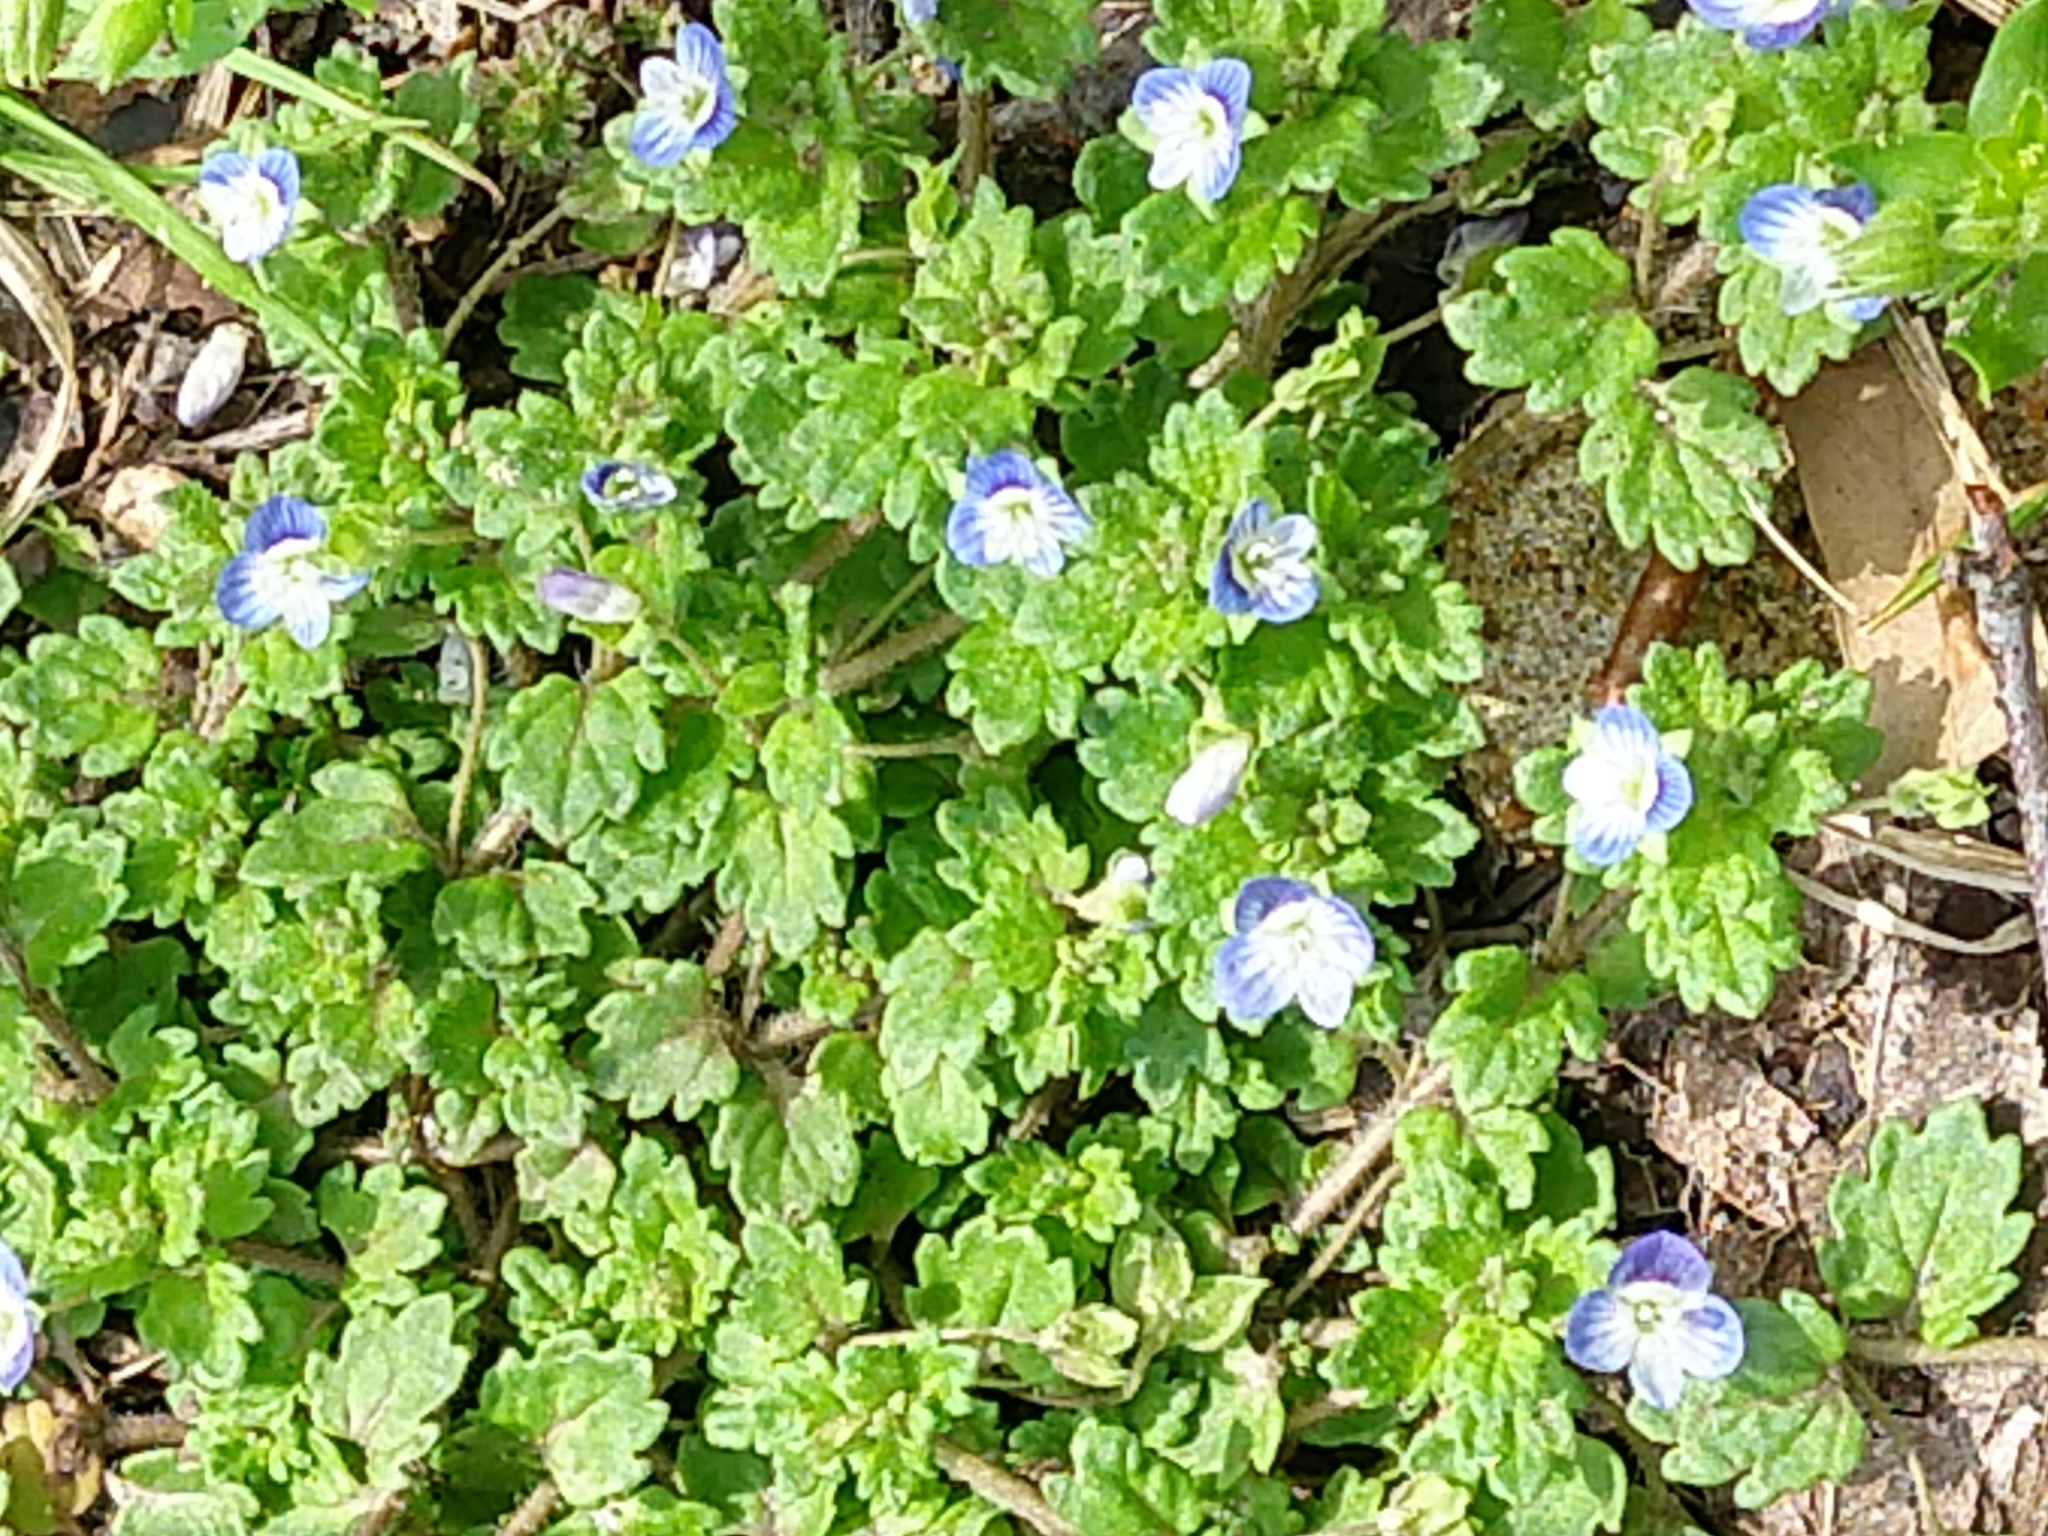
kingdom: Plantae
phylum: Tracheophyta
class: Magnoliopsida
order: Lamiales
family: Plantaginaceae
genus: Veronica
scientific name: Veronica polita
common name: Grey field-speedwell
